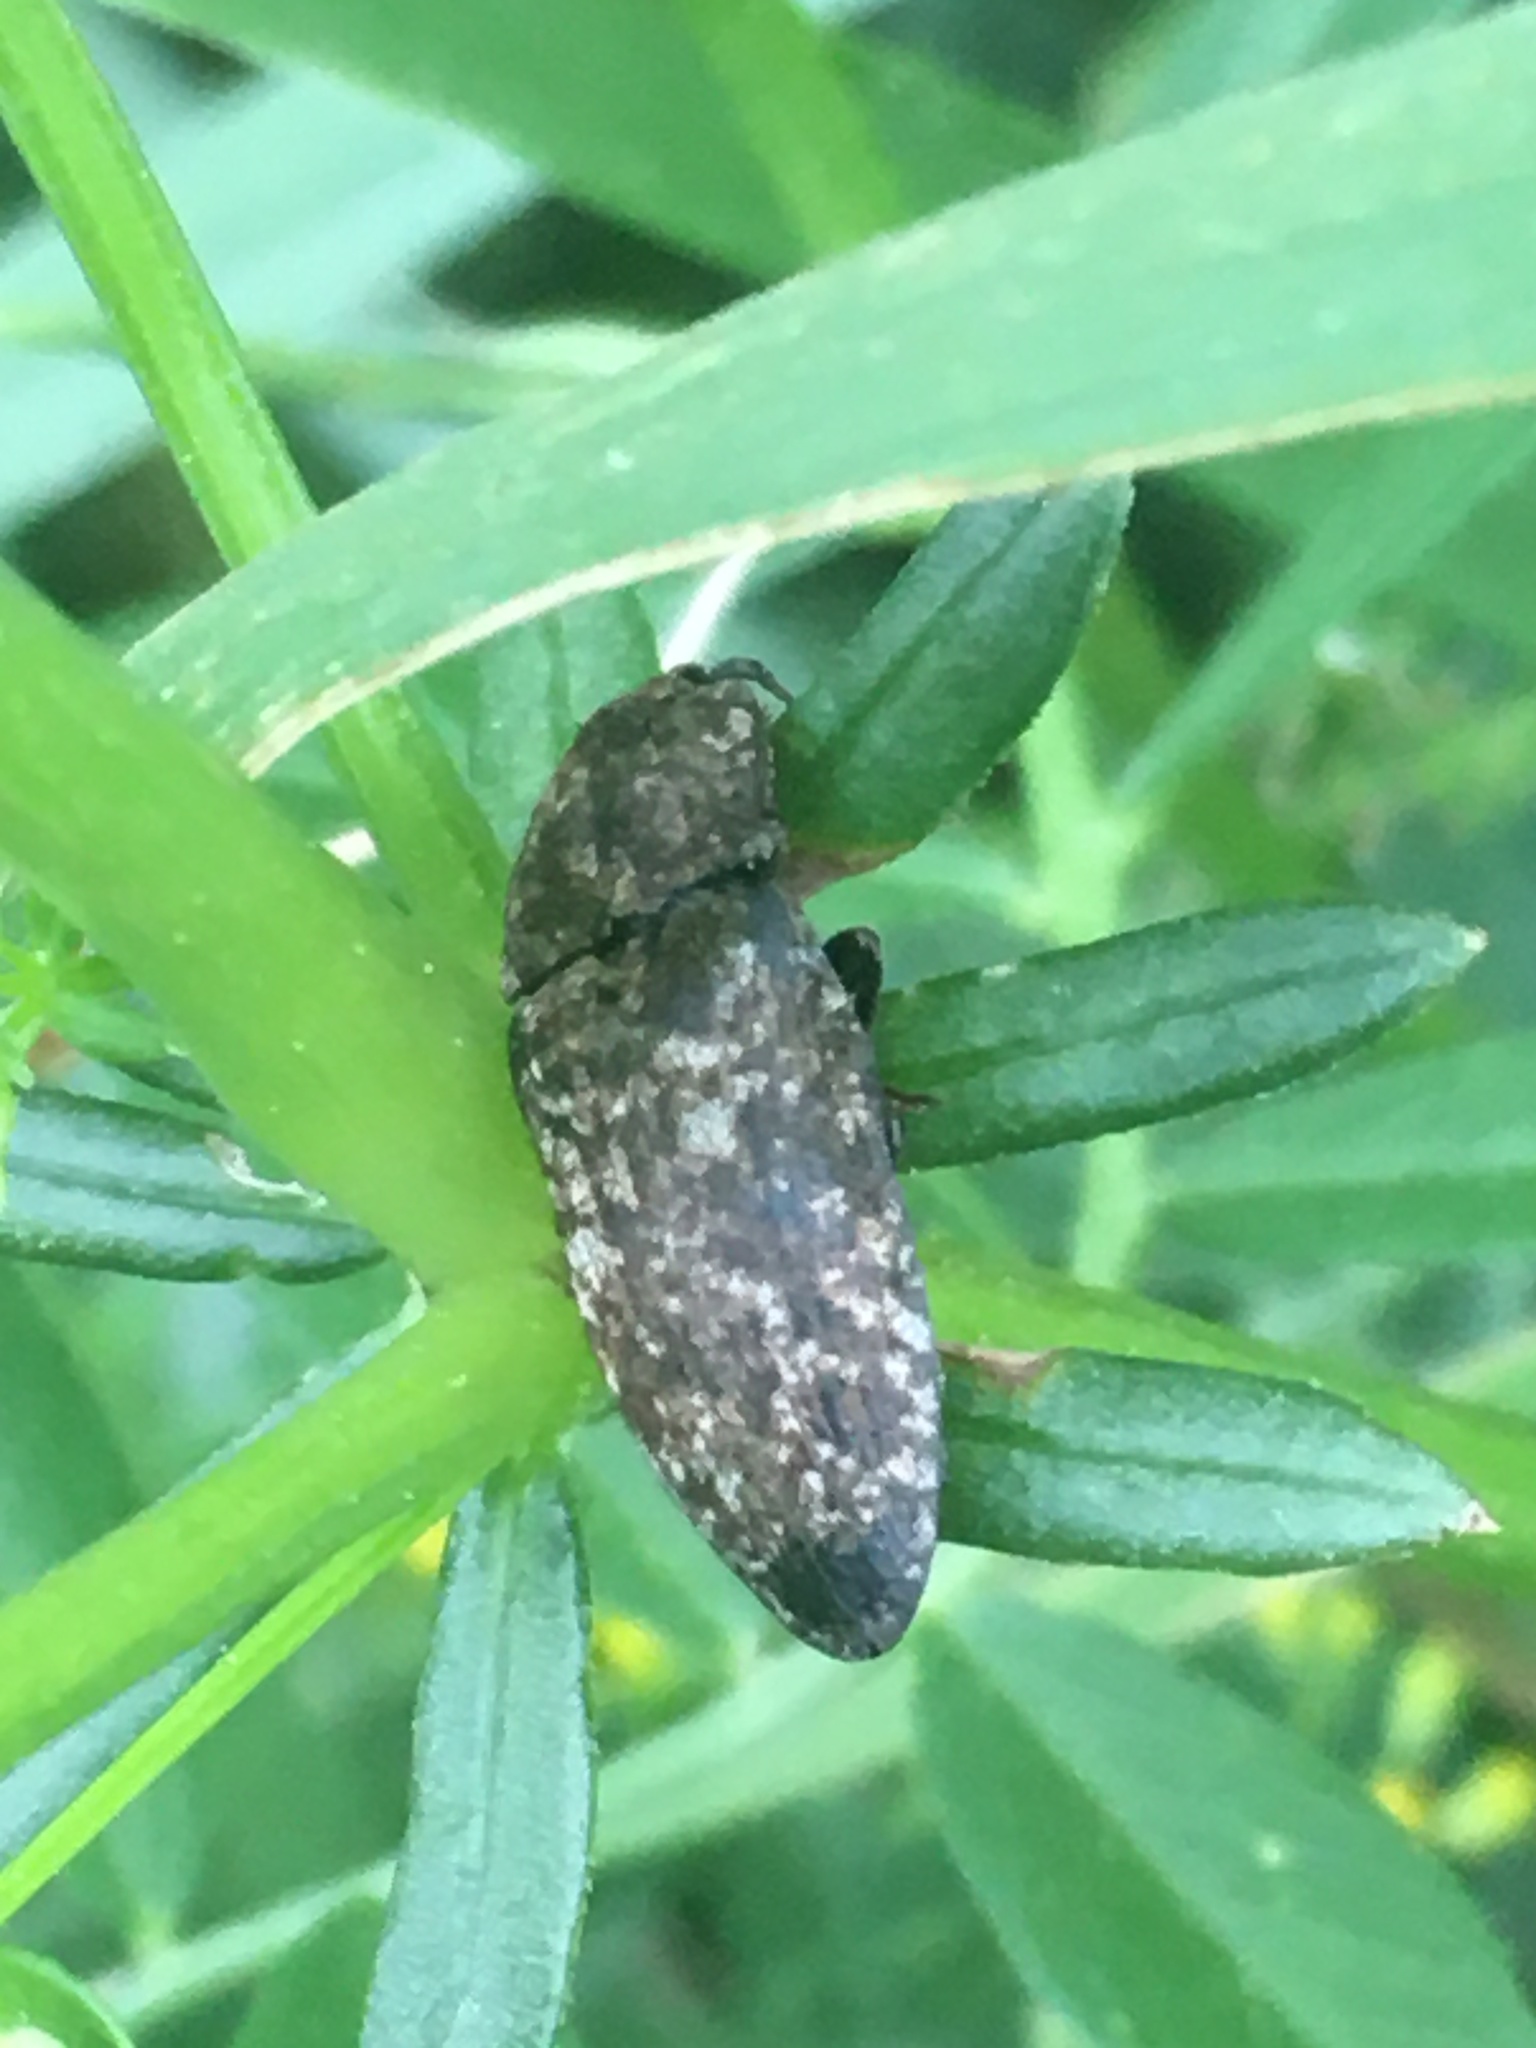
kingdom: Animalia
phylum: Arthropoda
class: Insecta
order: Coleoptera
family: Elateridae
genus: Agrypnus
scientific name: Agrypnus murinus
